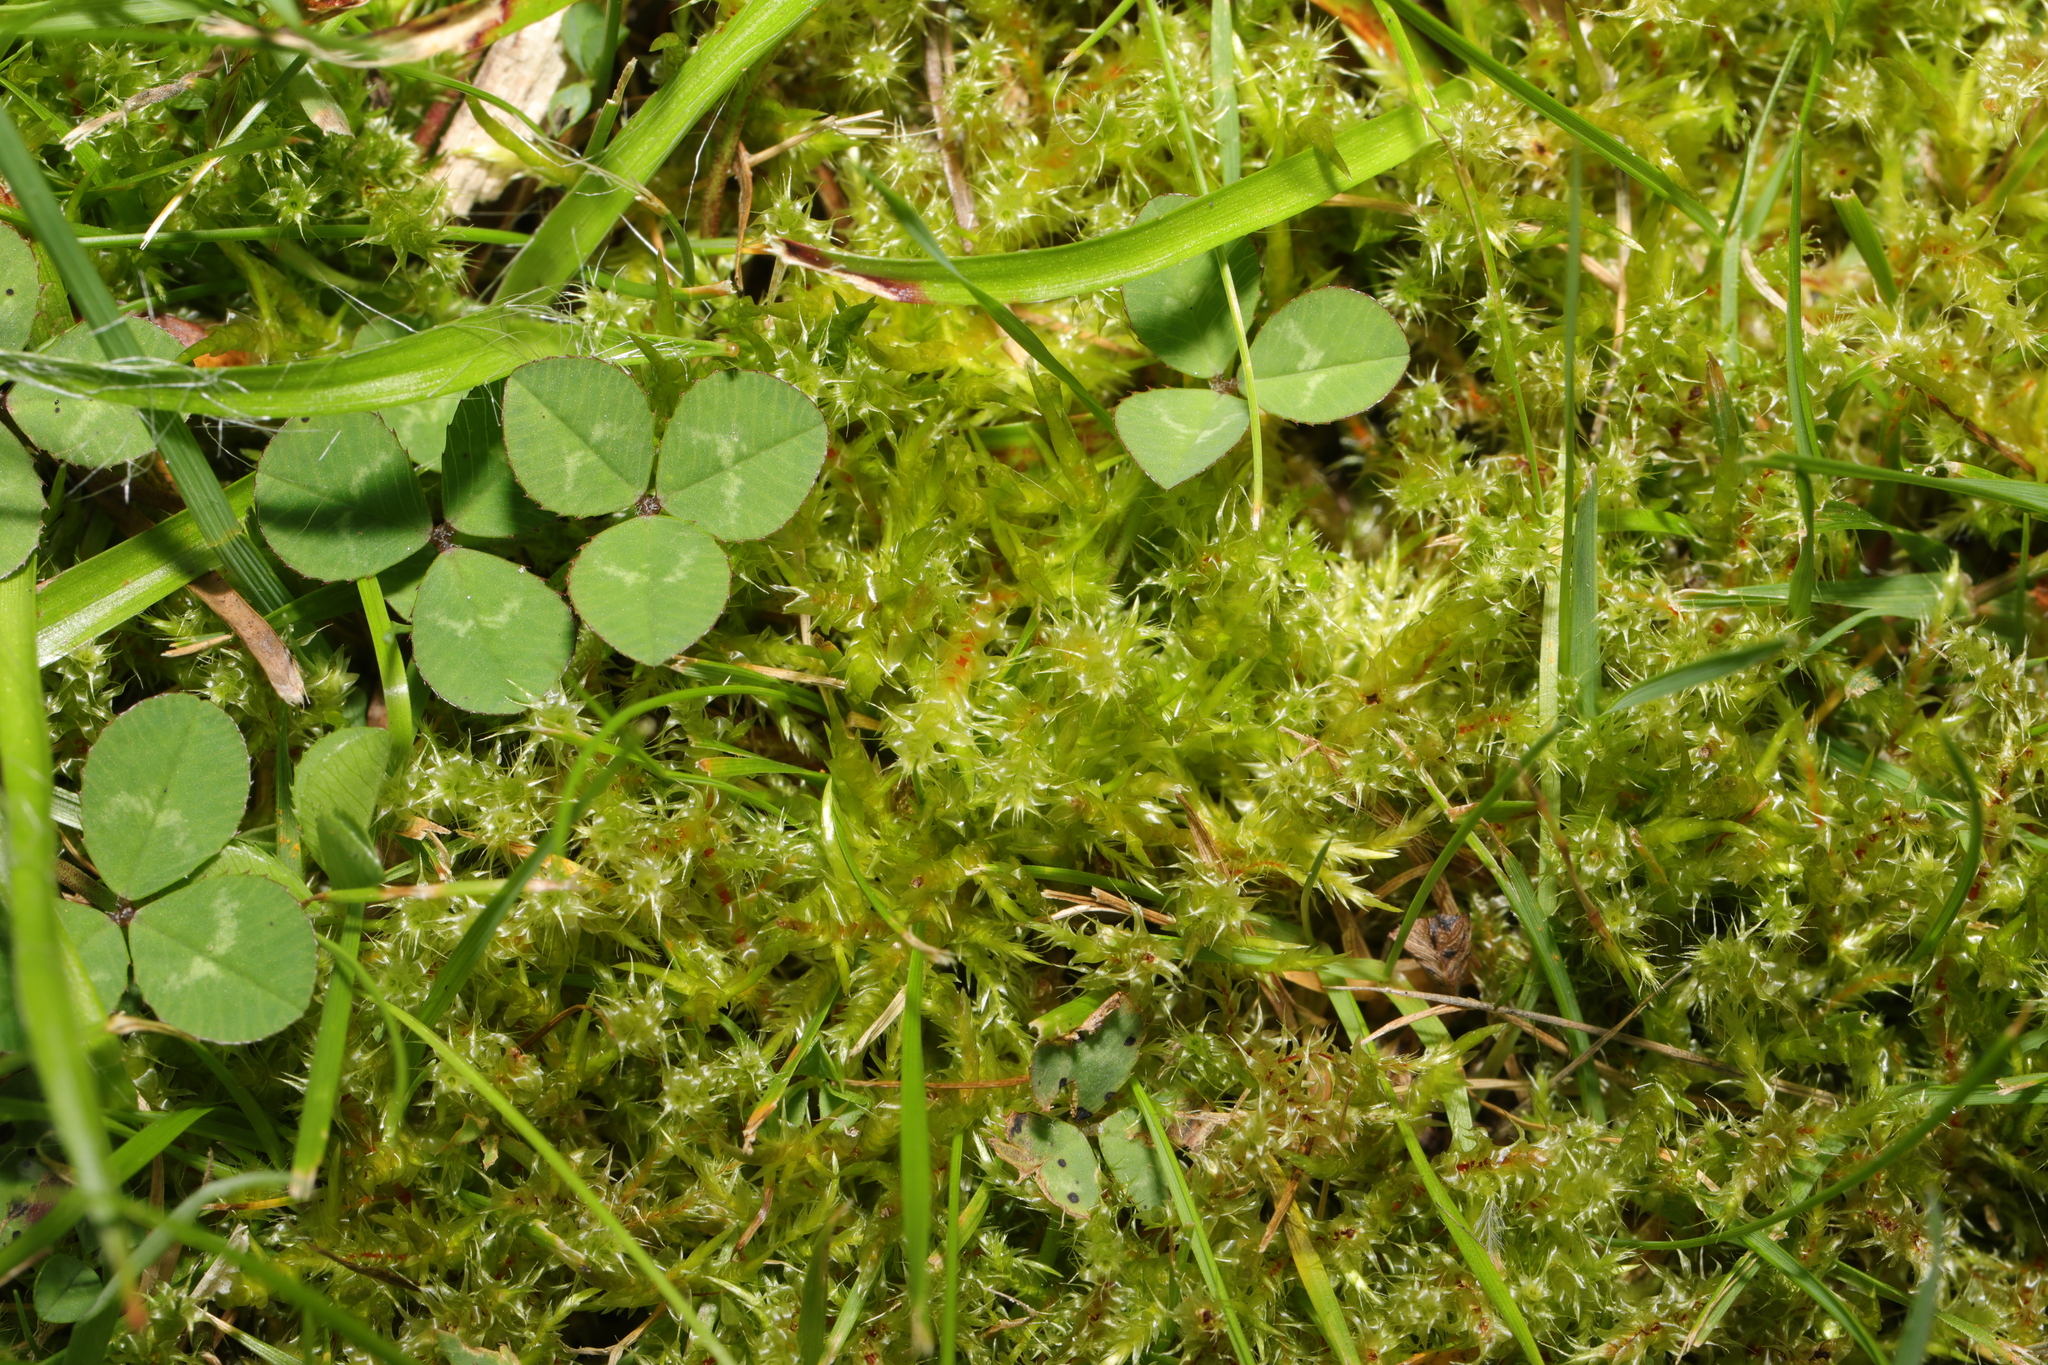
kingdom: Plantae
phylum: Bryophyta
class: Bryopsida
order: Hypnales
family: Hylocomiaceae
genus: Rhytidiadelphus
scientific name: Rhytidiadelphus squarrosus
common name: Springy turf-moss
